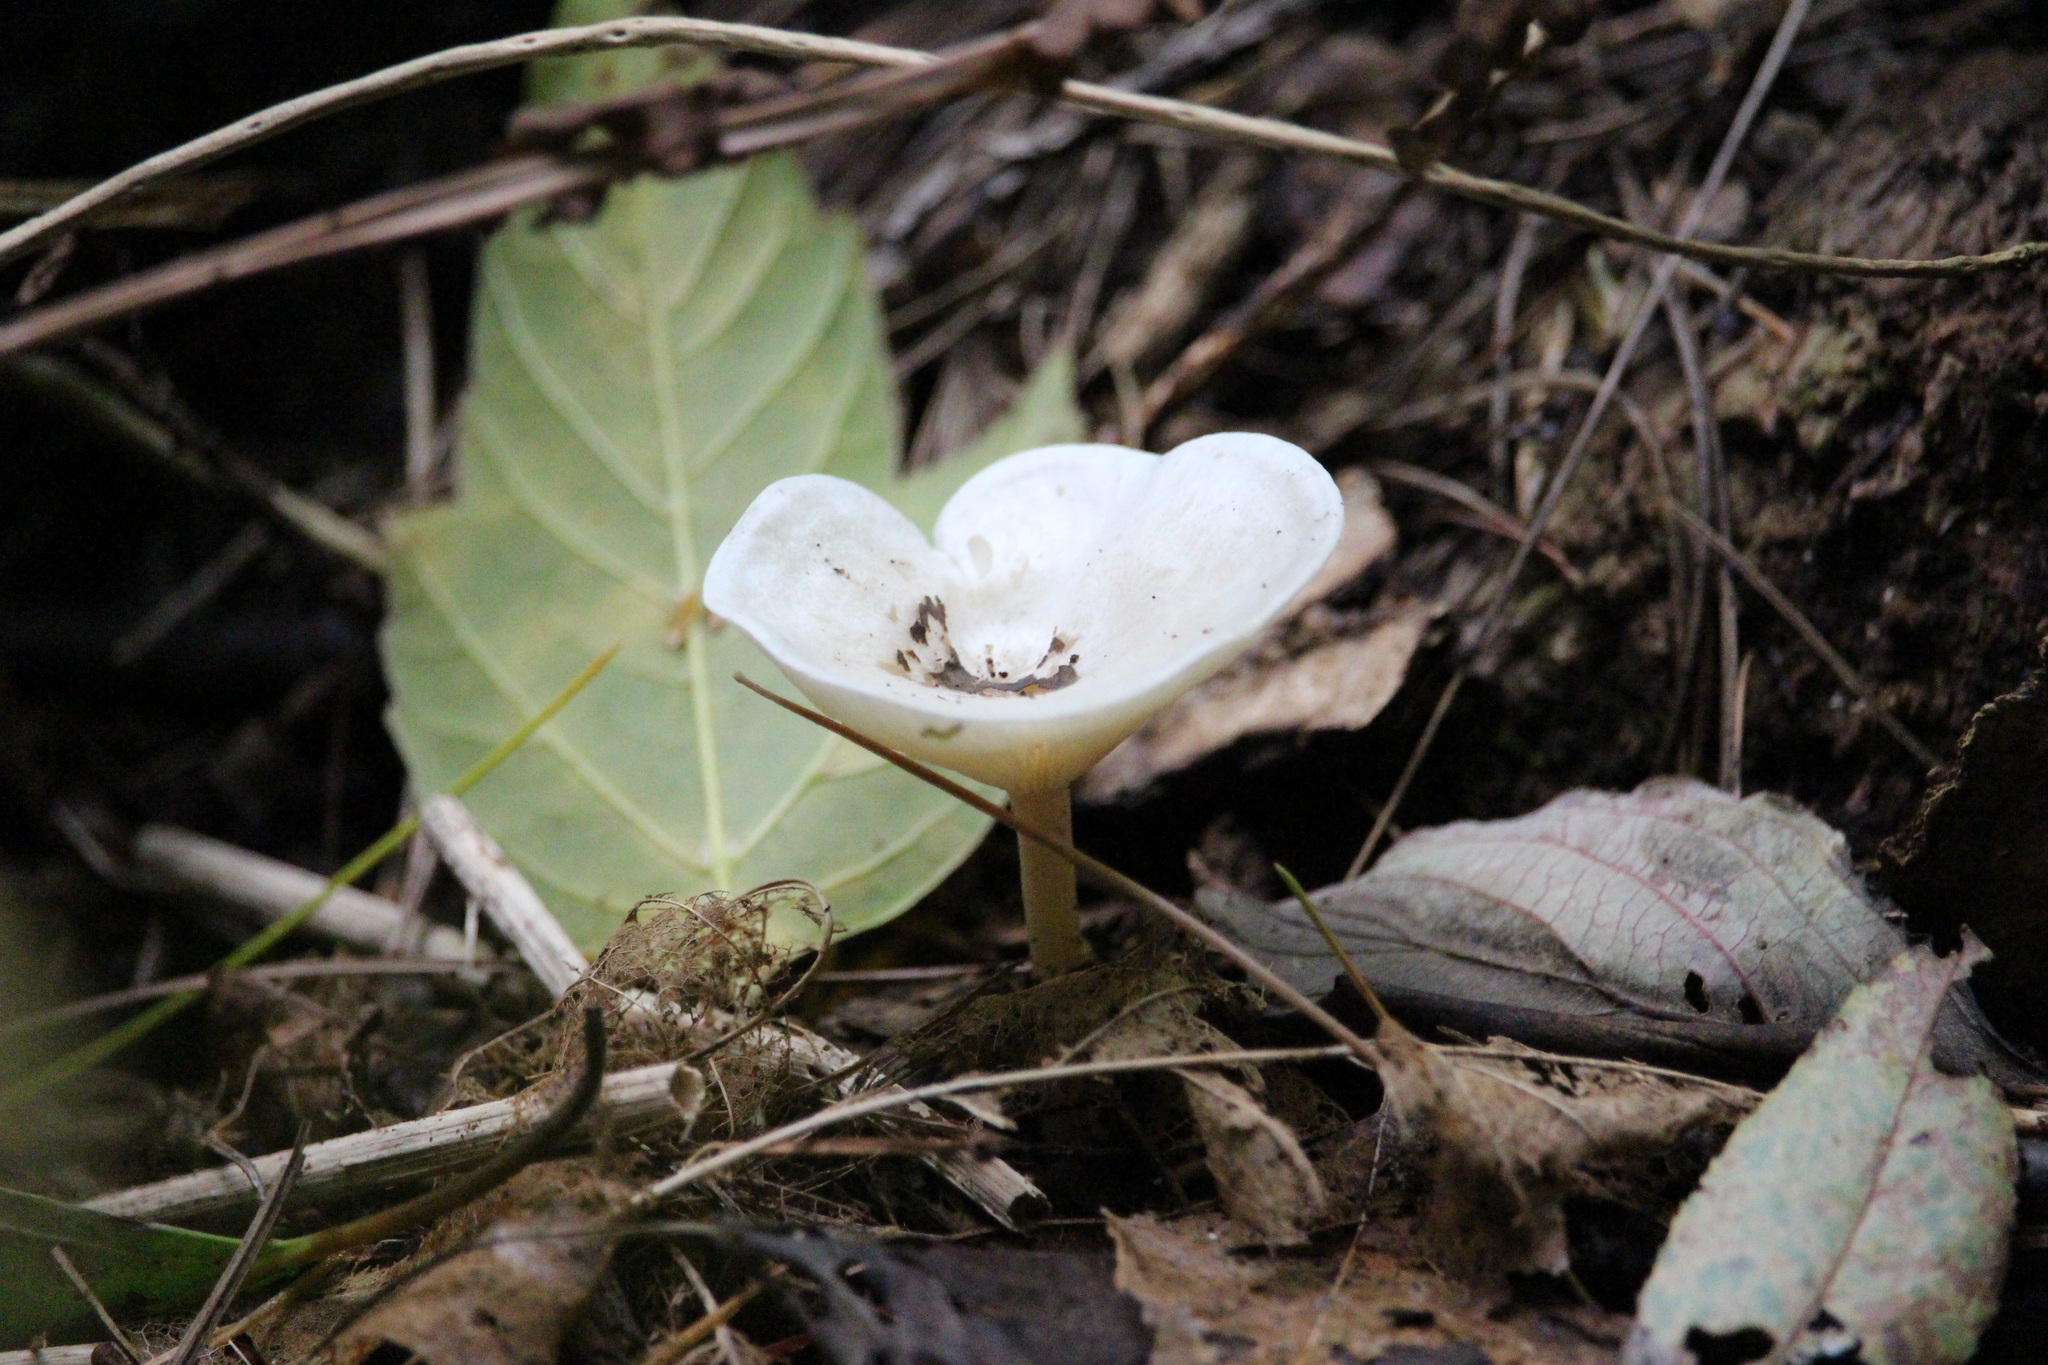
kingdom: Fungi
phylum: Basidiomycota
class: Agaricomycetes
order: Agaricales
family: Tricholomataceae
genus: Infundibulicybe
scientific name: Infundibulicybe gibba
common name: Common funnel
